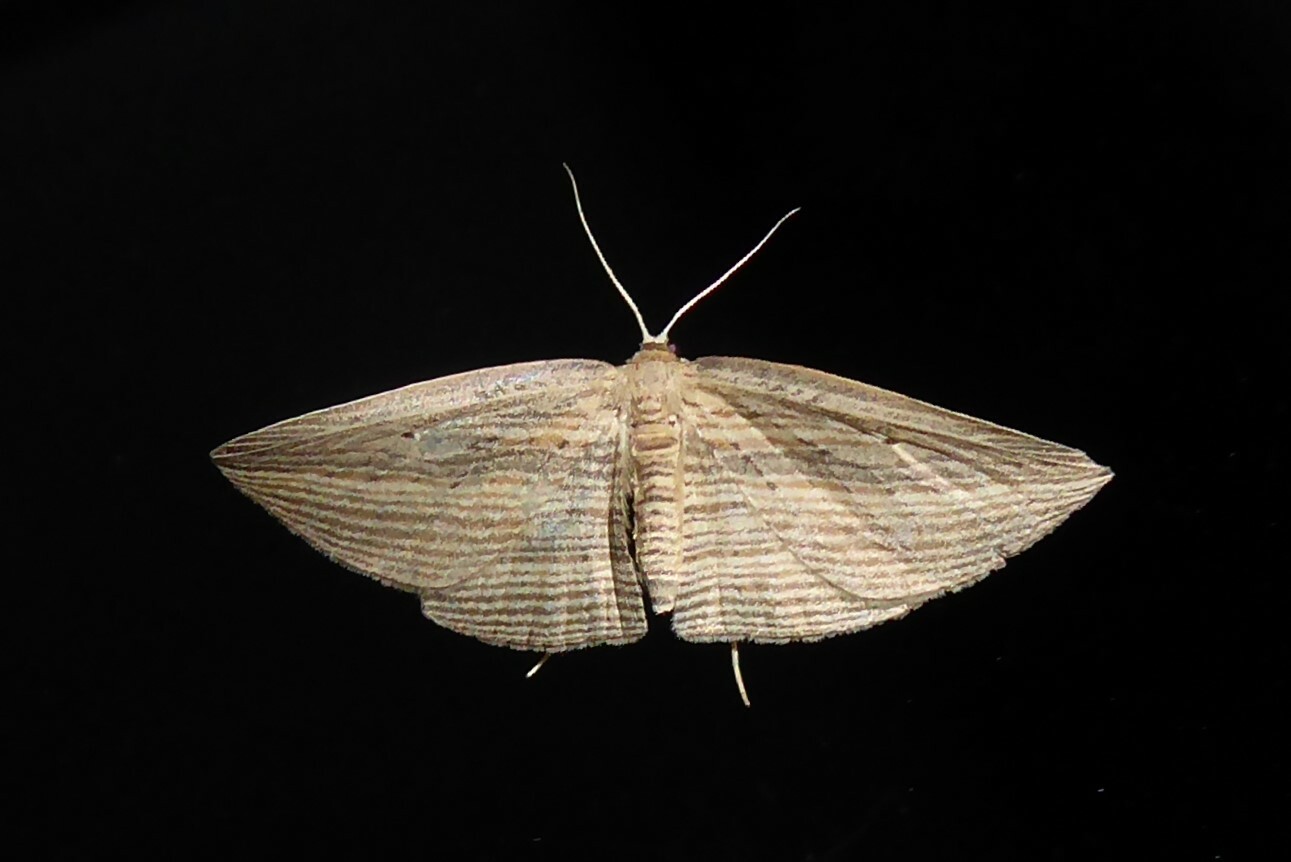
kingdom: Animalia
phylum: Arthropoda
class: Insecta
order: Lepidoptera
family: Geometridae
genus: Epiphryne
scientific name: Epiphryne verriculata
